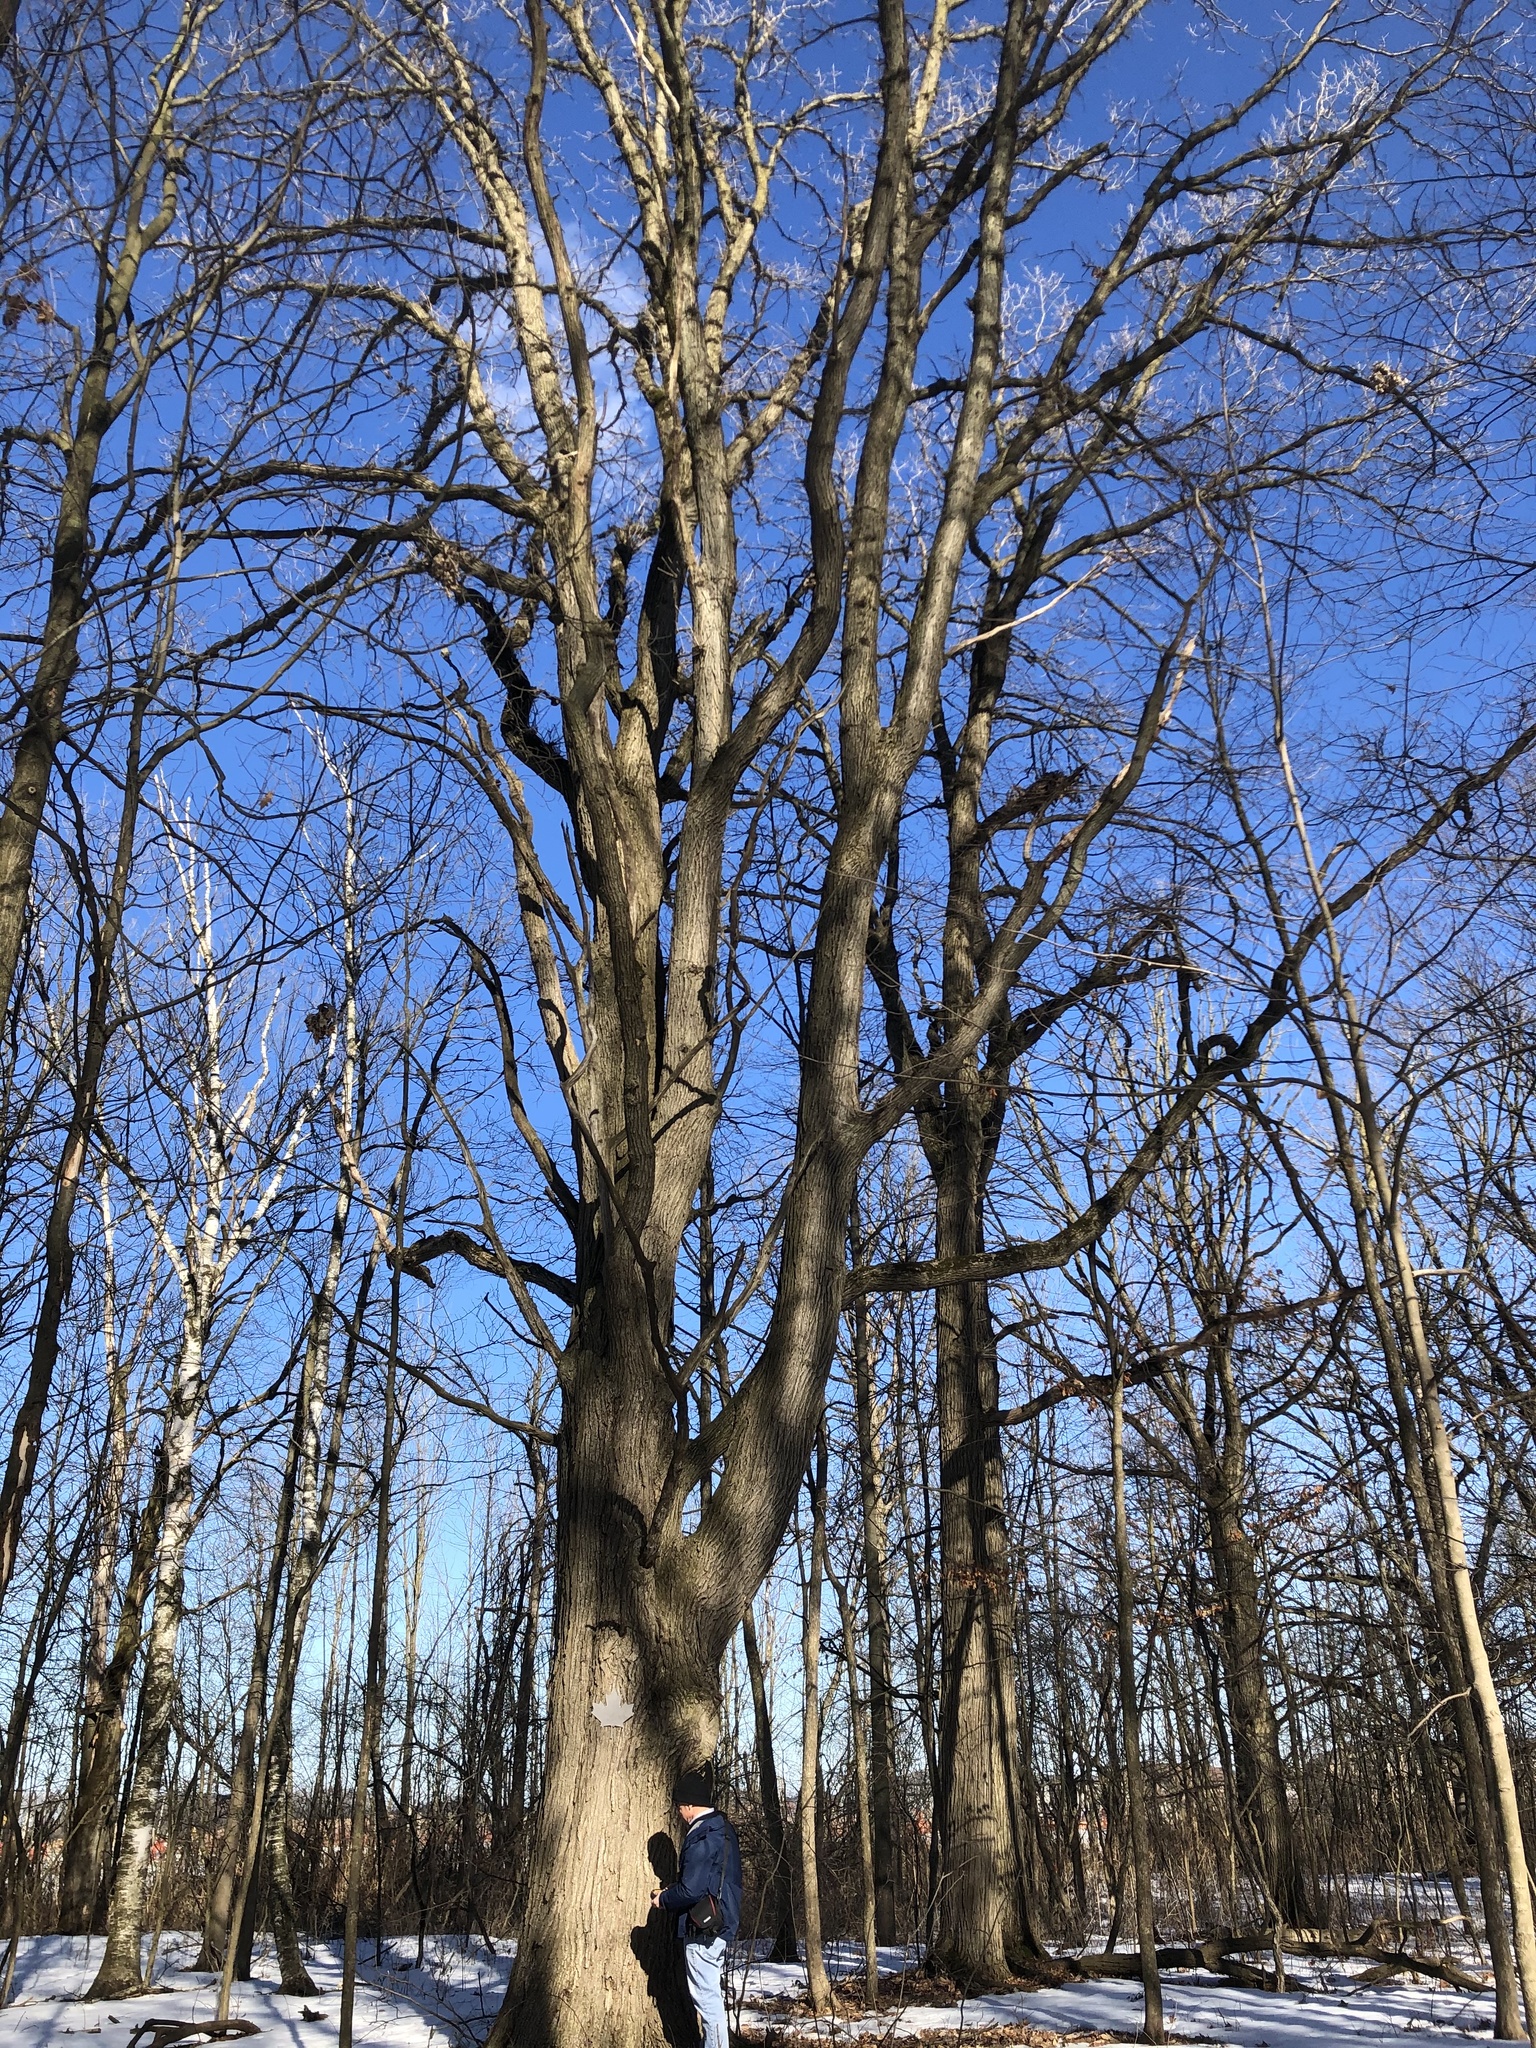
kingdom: Plantae
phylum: Tracheophyta
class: Magnoliopsida
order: Fagales
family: Fagaceae
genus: Quercus
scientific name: Quercus bicolor
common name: Swamp white oak
